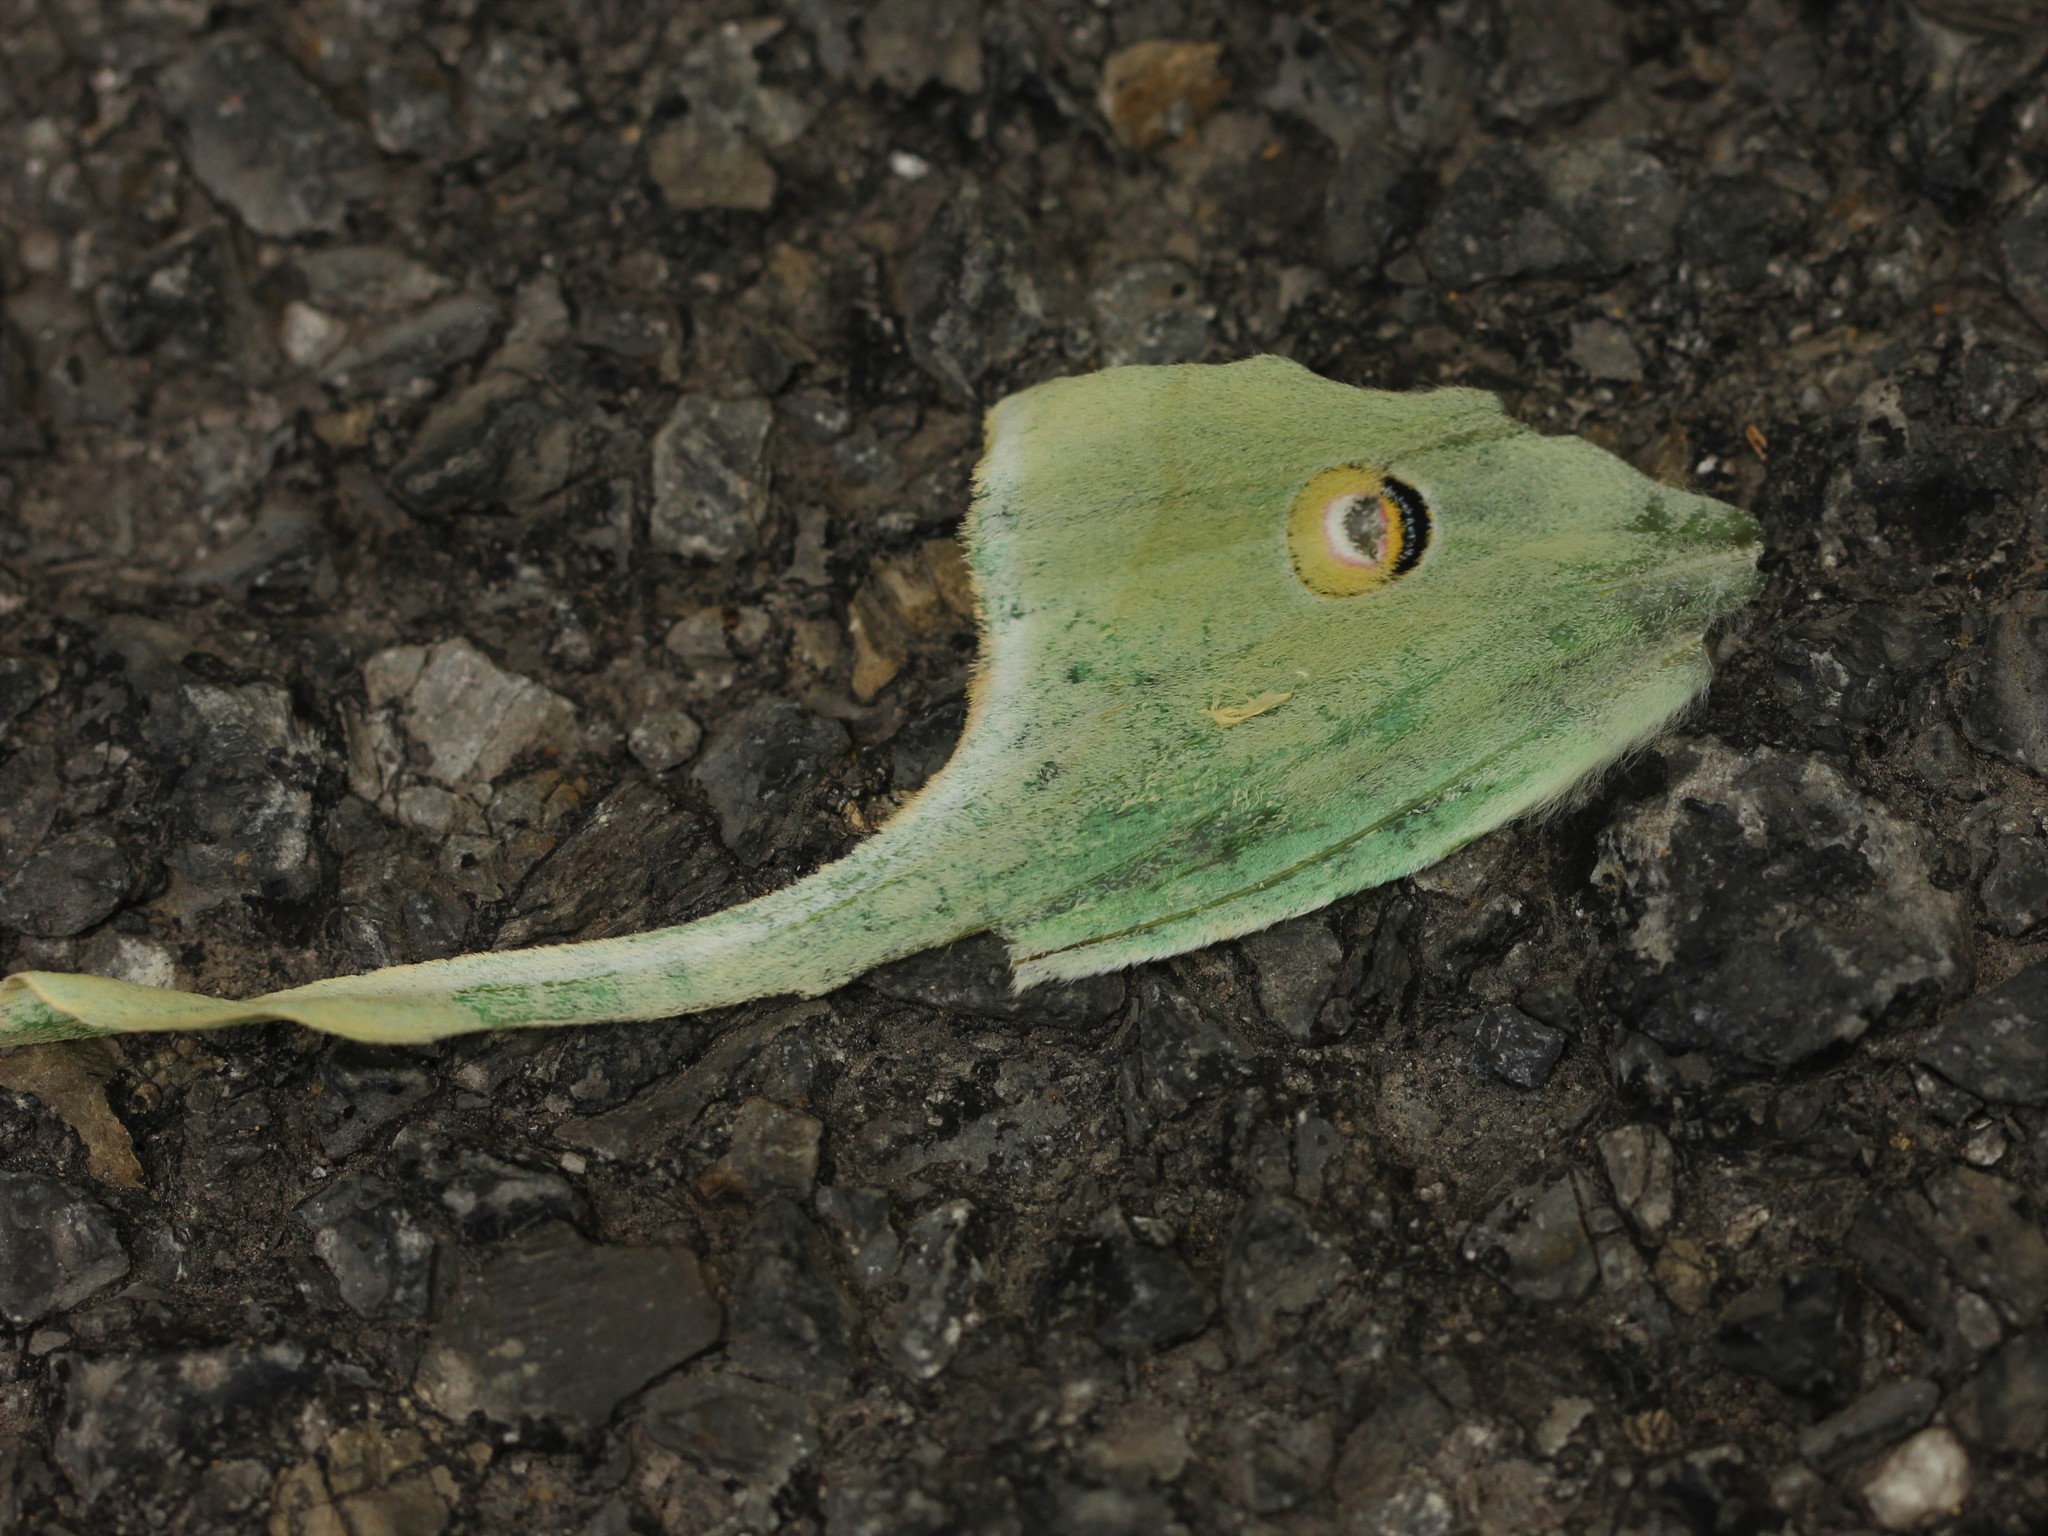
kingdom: Animalia
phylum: Arthropoda
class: Insecta
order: Lepidoptera
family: Saturniidae
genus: Actias
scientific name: Actias luna
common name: Luna moth
